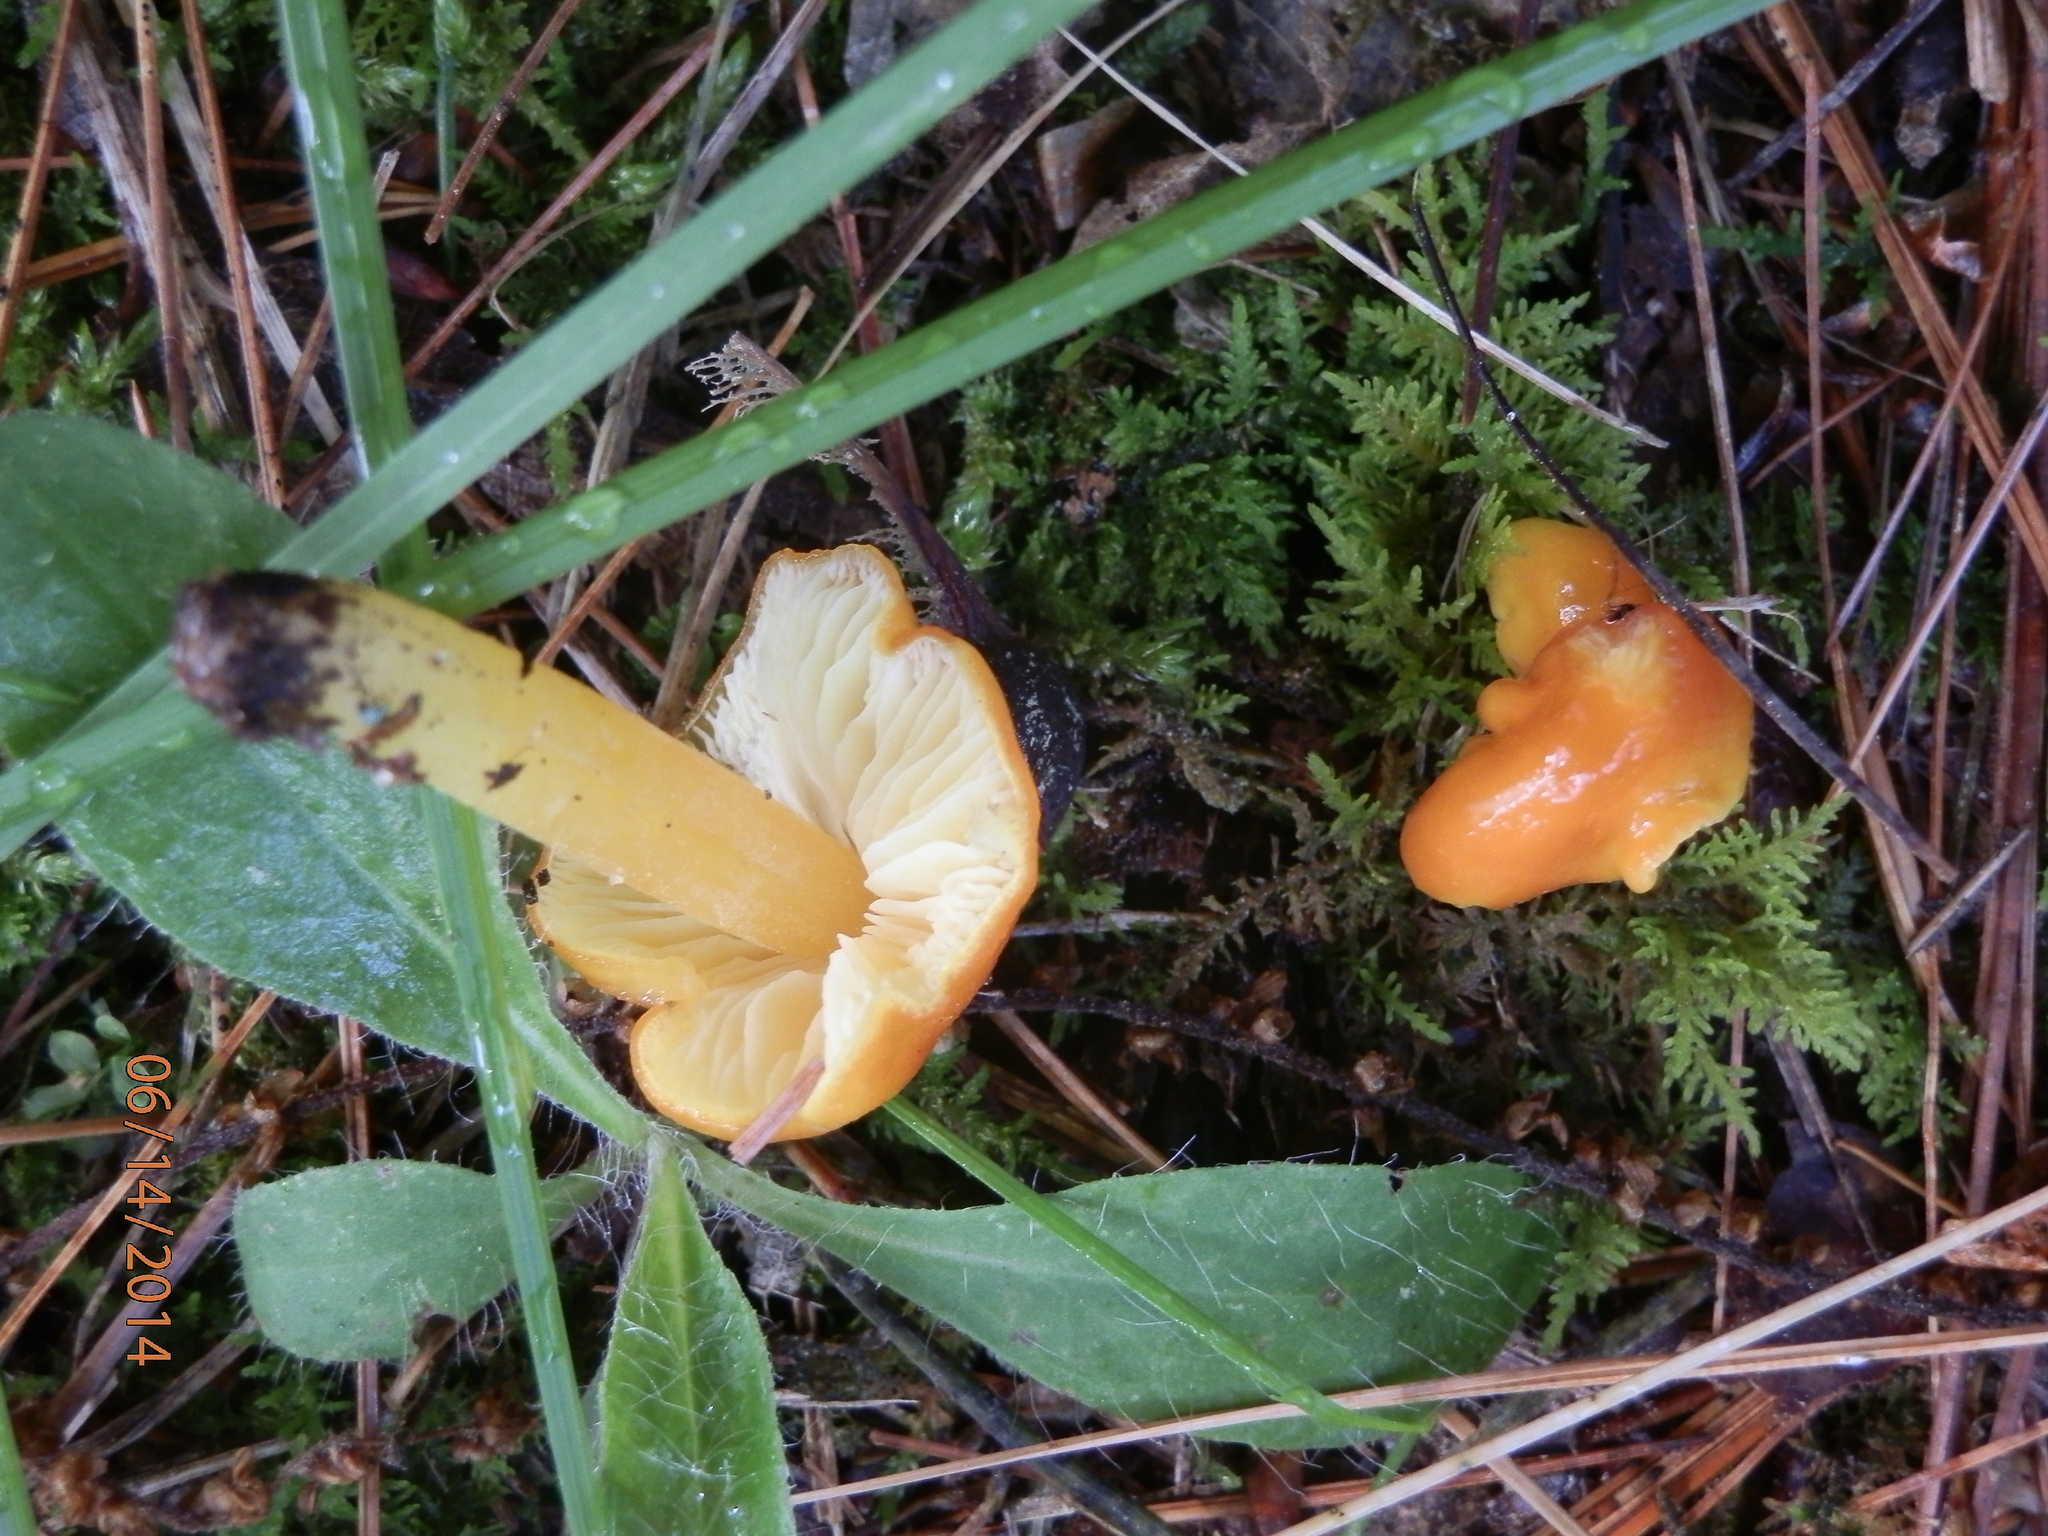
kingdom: Fungi
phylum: Basidiomycota
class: Agaricomycetes
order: Agaricales
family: Hygrophoraceae
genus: Hygrocybe
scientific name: Hygrocybe aurantiosplendens
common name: Orange waxcap
